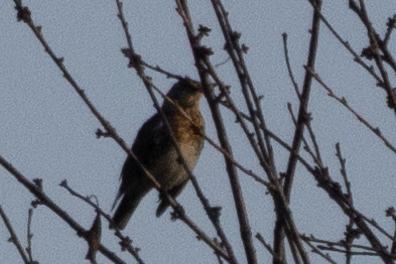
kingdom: Animalia
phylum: Chordata
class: Aves
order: Passeriformes
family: Turdidae
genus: Turdus
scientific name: Turdus pilaris
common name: Fieldfare
